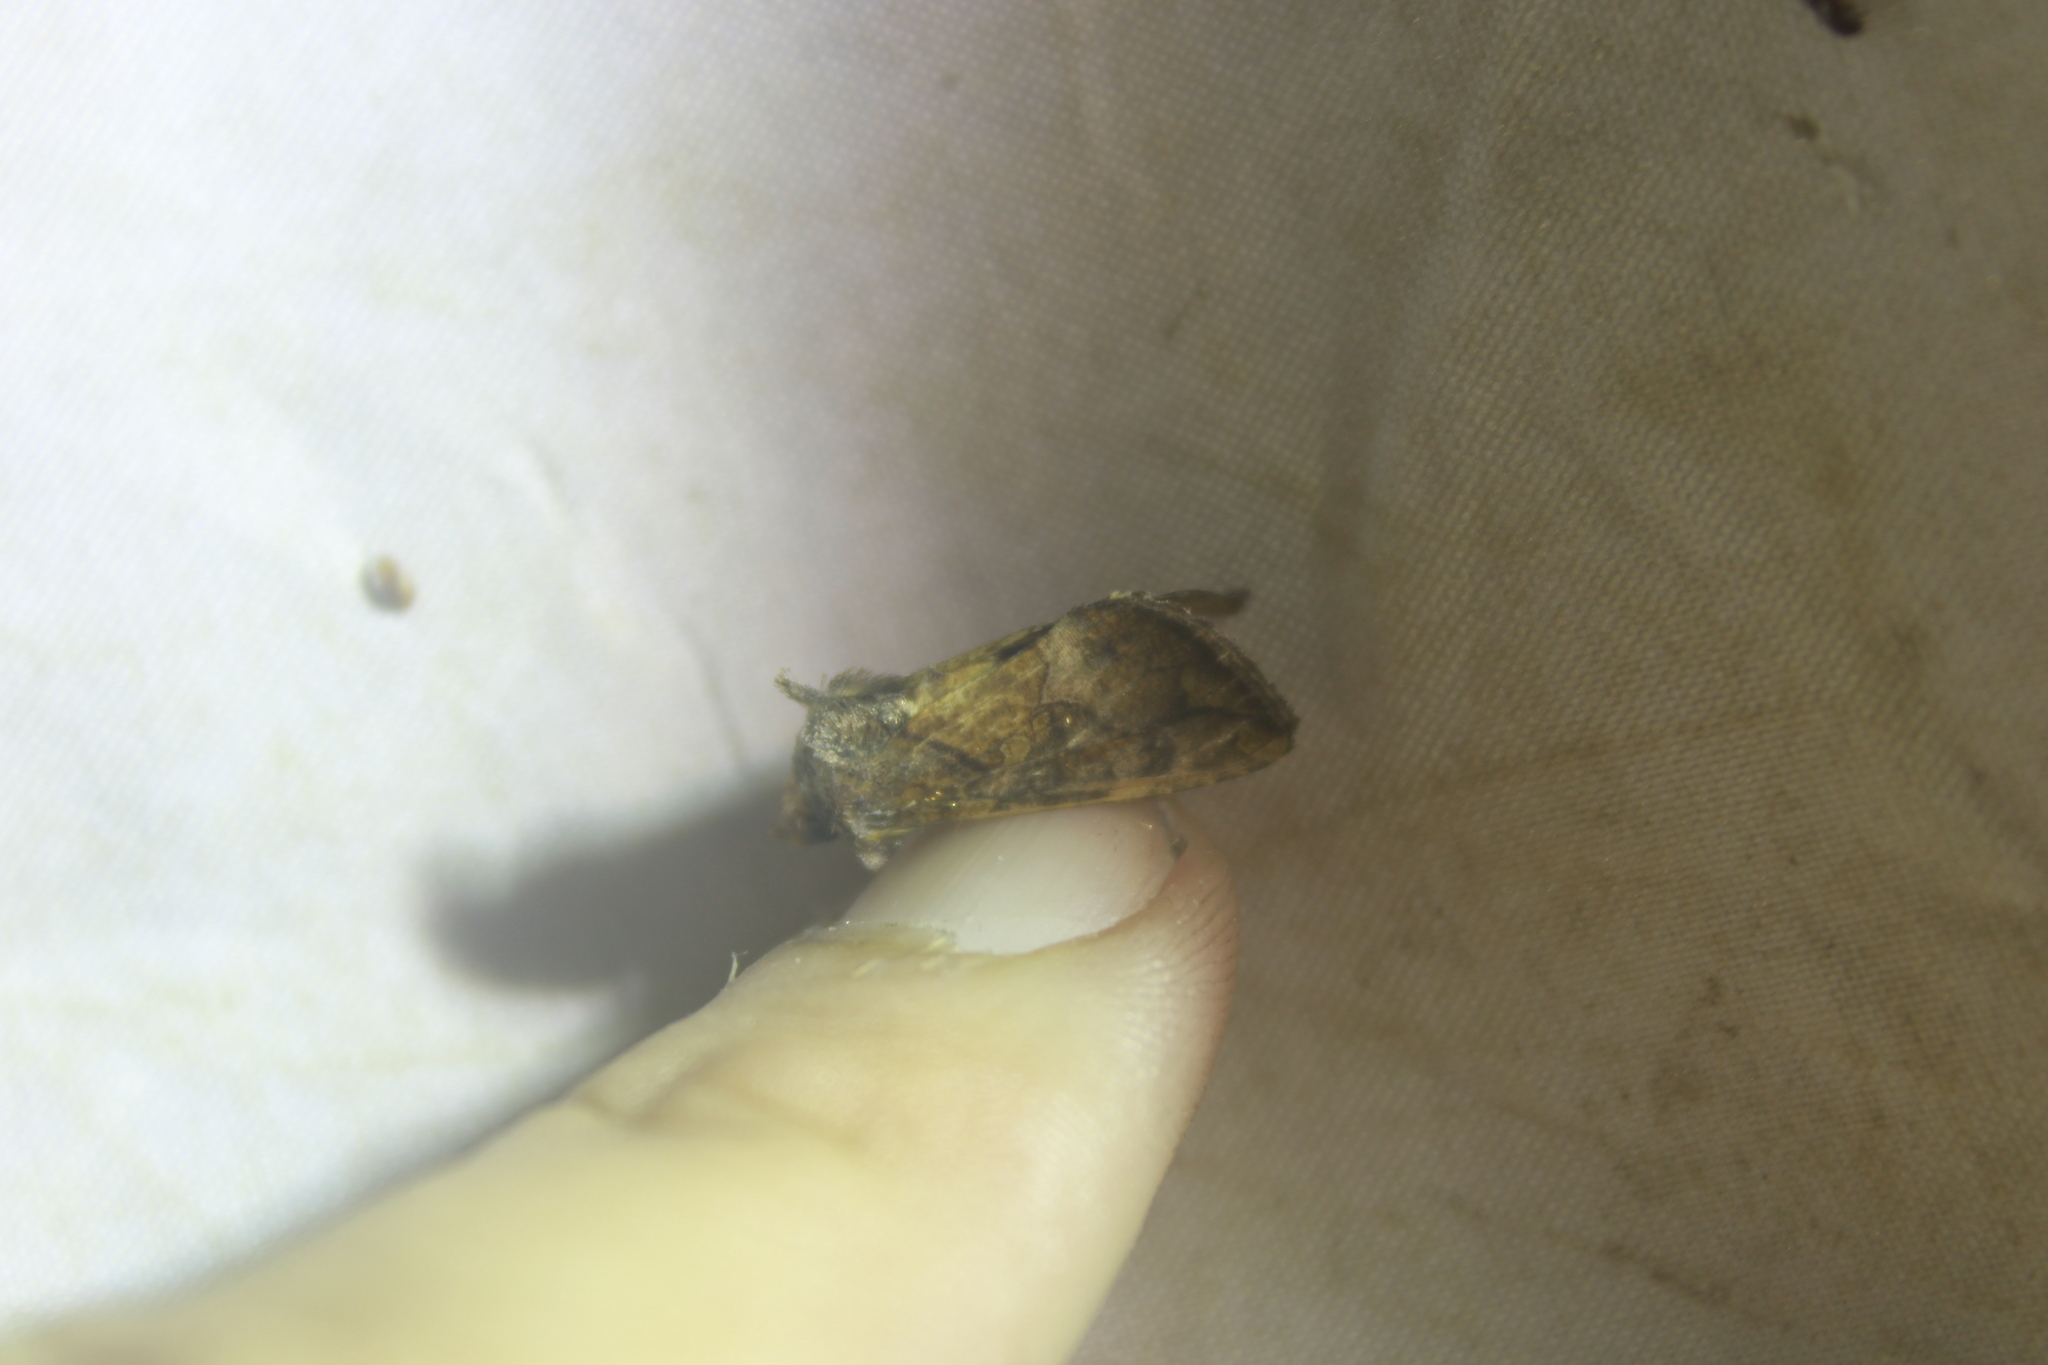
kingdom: Animalia
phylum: Arthropoda
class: Insecta
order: Lepidoptera
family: Noctuidae
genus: Argyrogramma
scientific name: Argyrogramma verruca
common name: Golden looper moth
